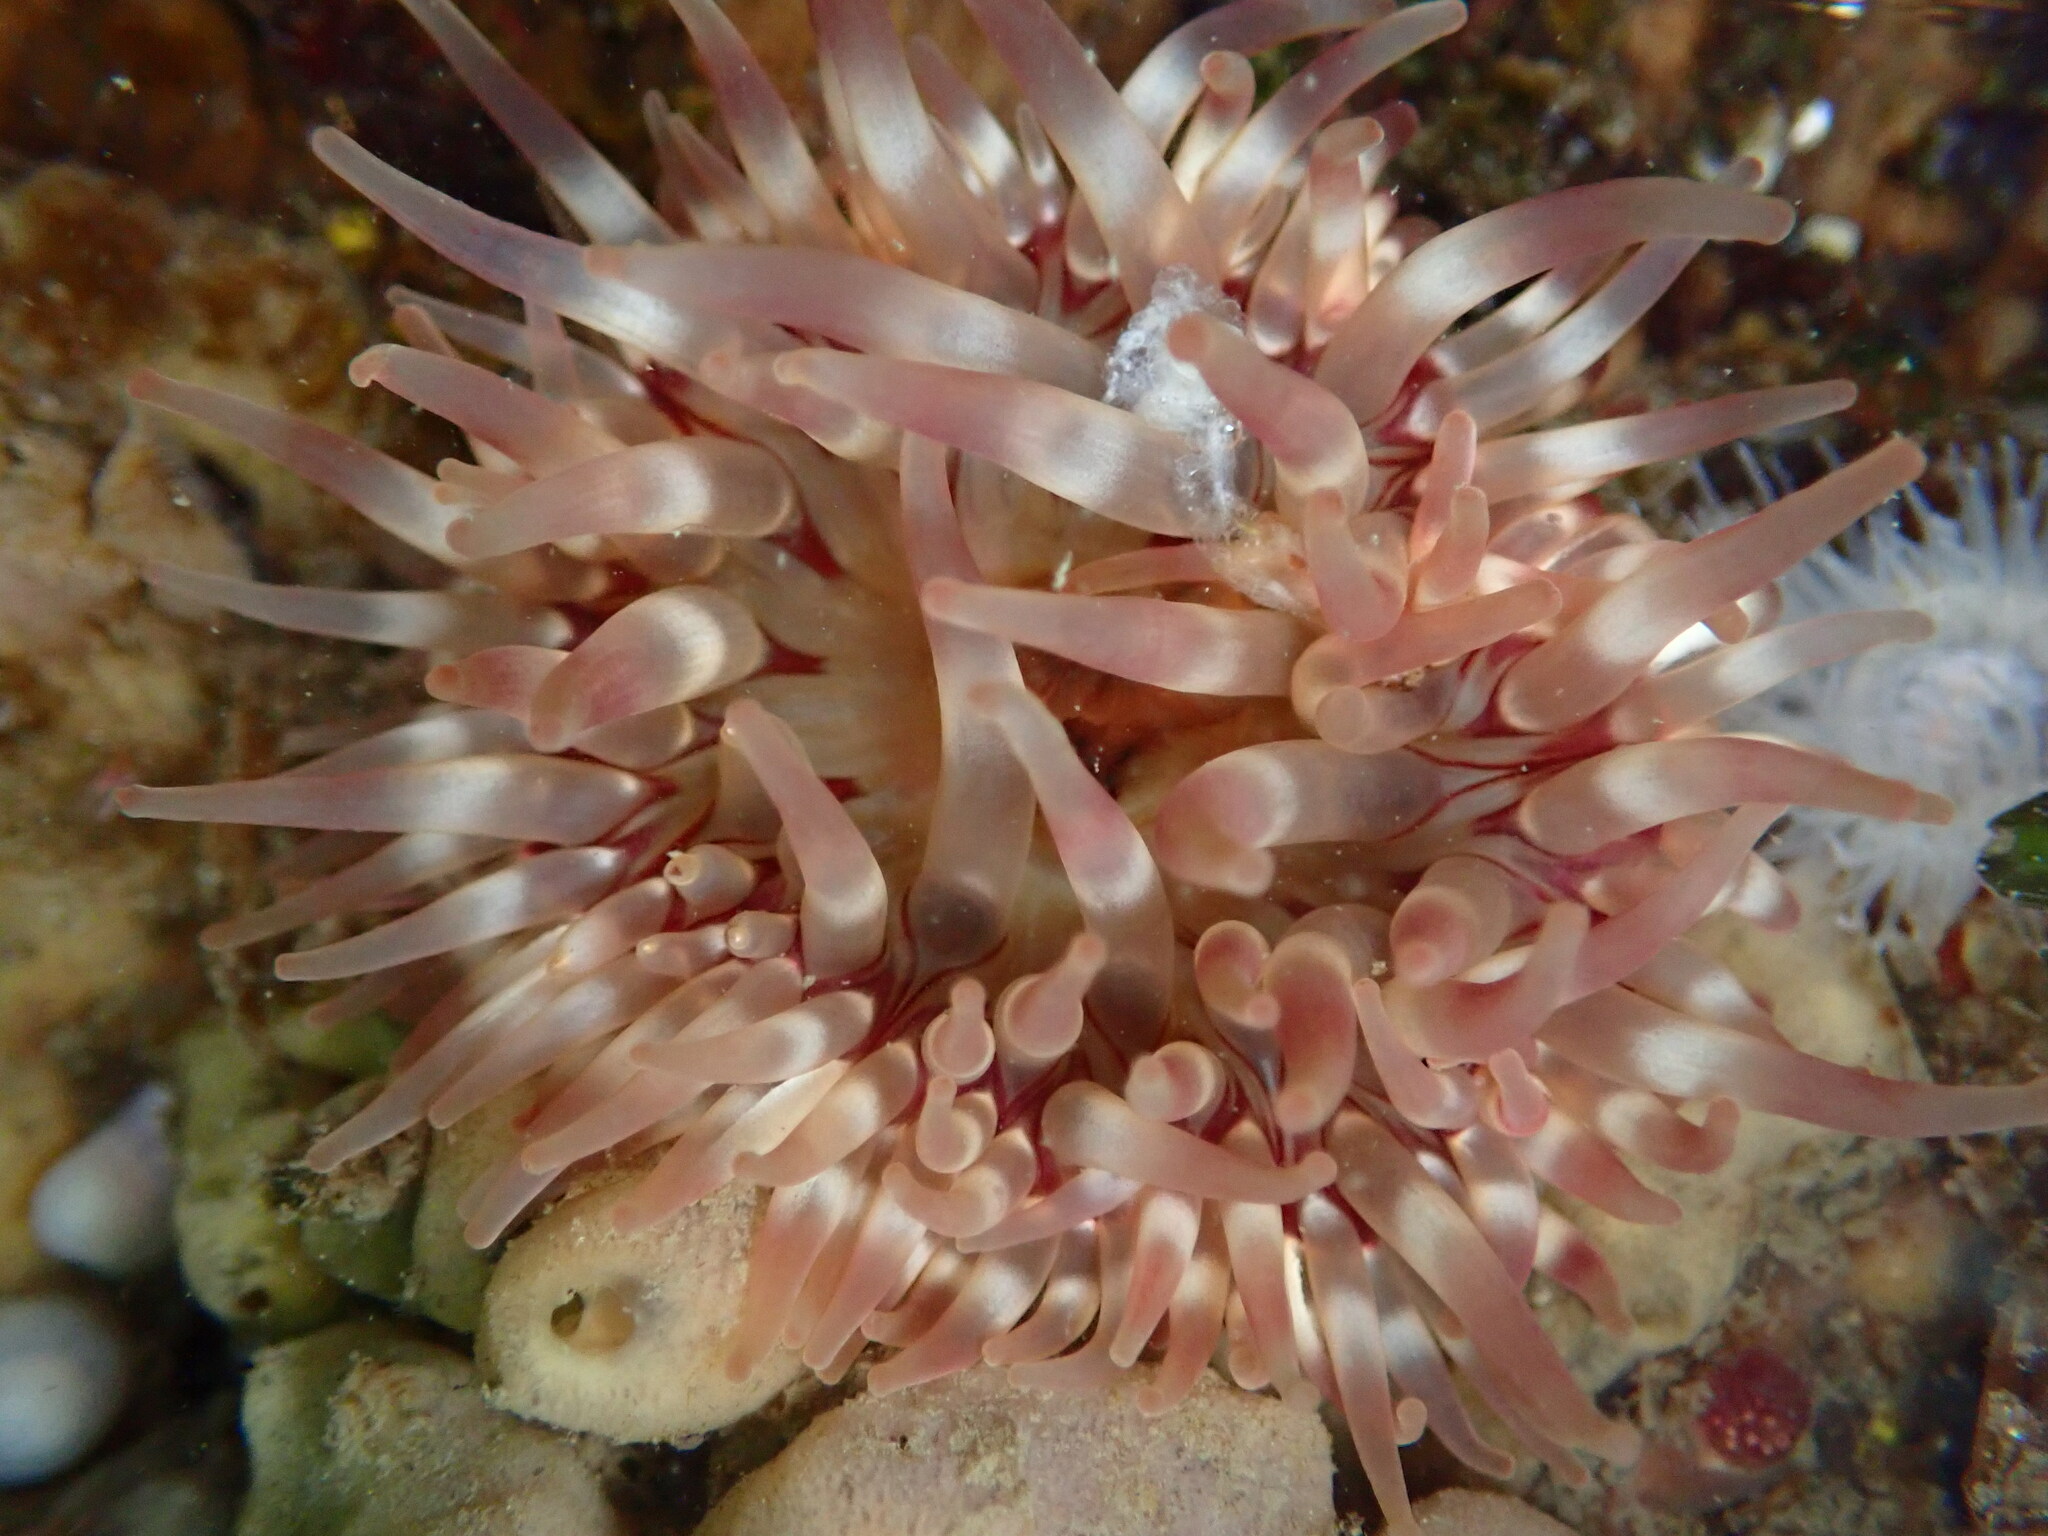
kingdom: Animalia
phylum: Cnidaria
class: Anthozoa
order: Actiniaria
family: Actiniidae
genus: Urticina
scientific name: Urticina grebelnyi
